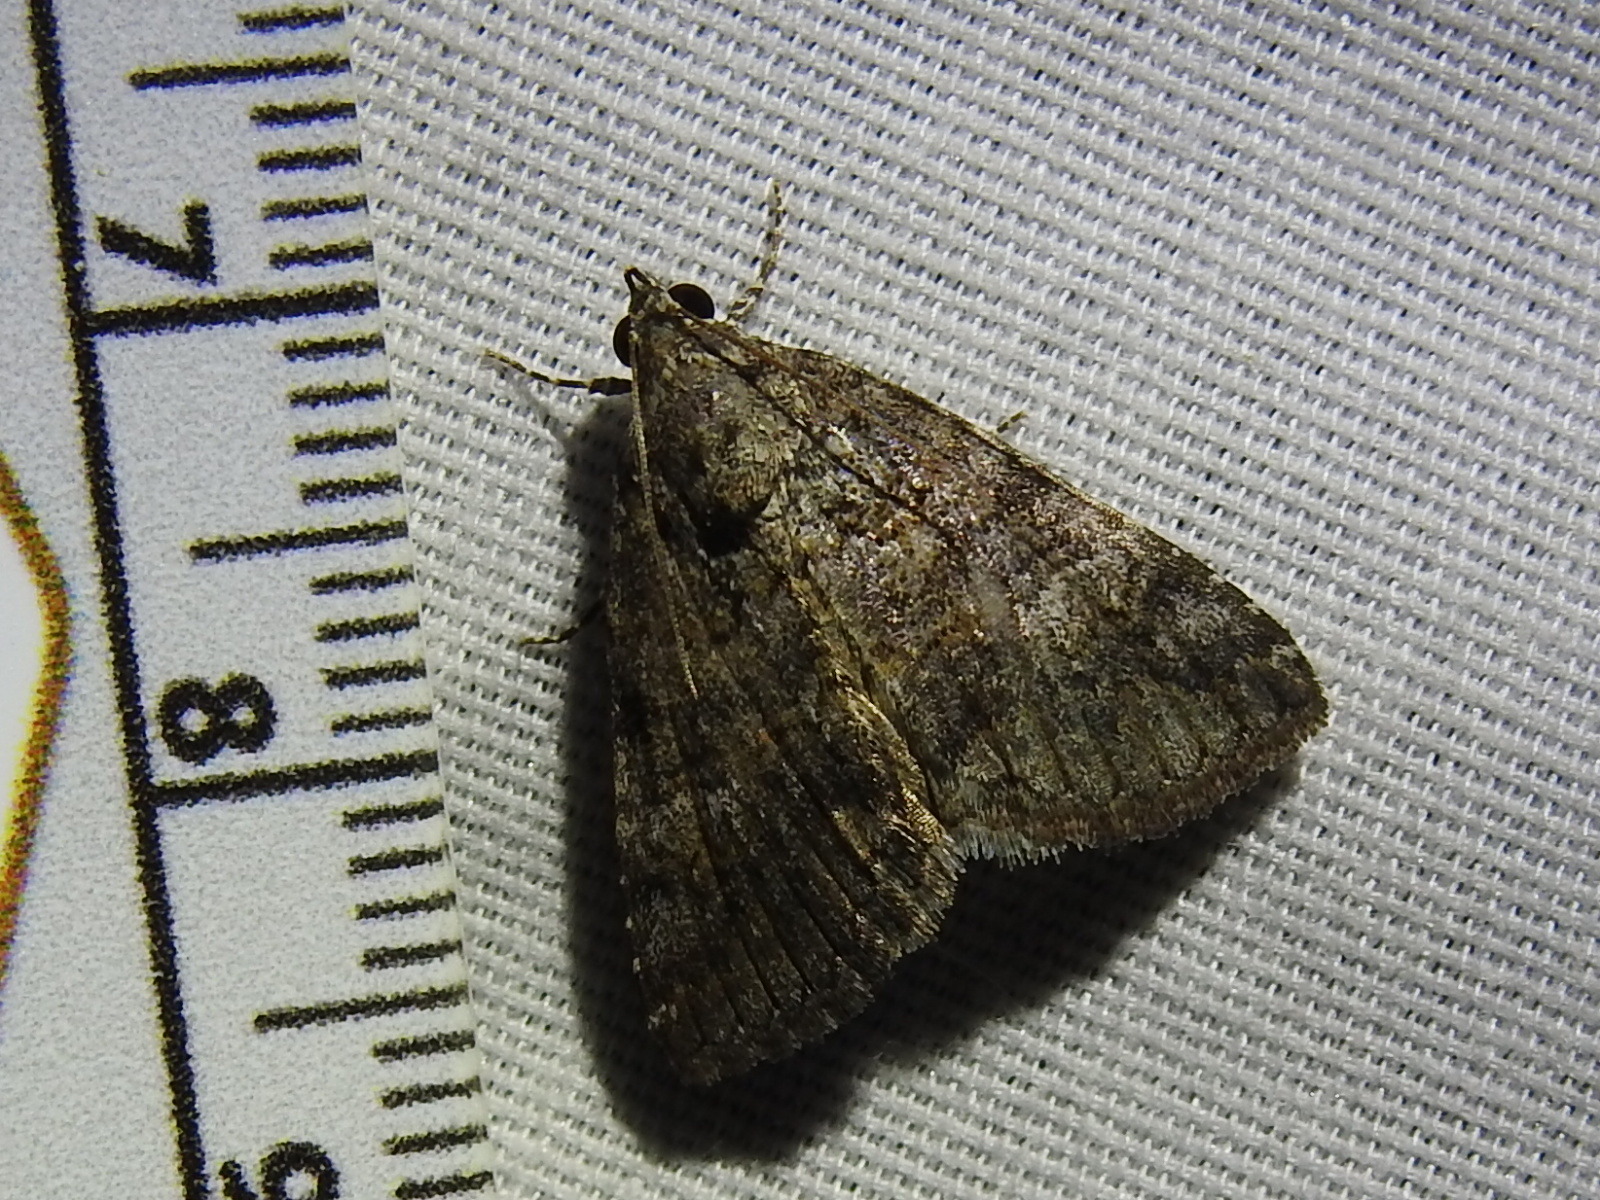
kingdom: Animalia
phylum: Arthropoda
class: Insecta
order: Lepidoptera
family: Erebidae
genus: Eubolina
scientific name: Eubolina impartialis
